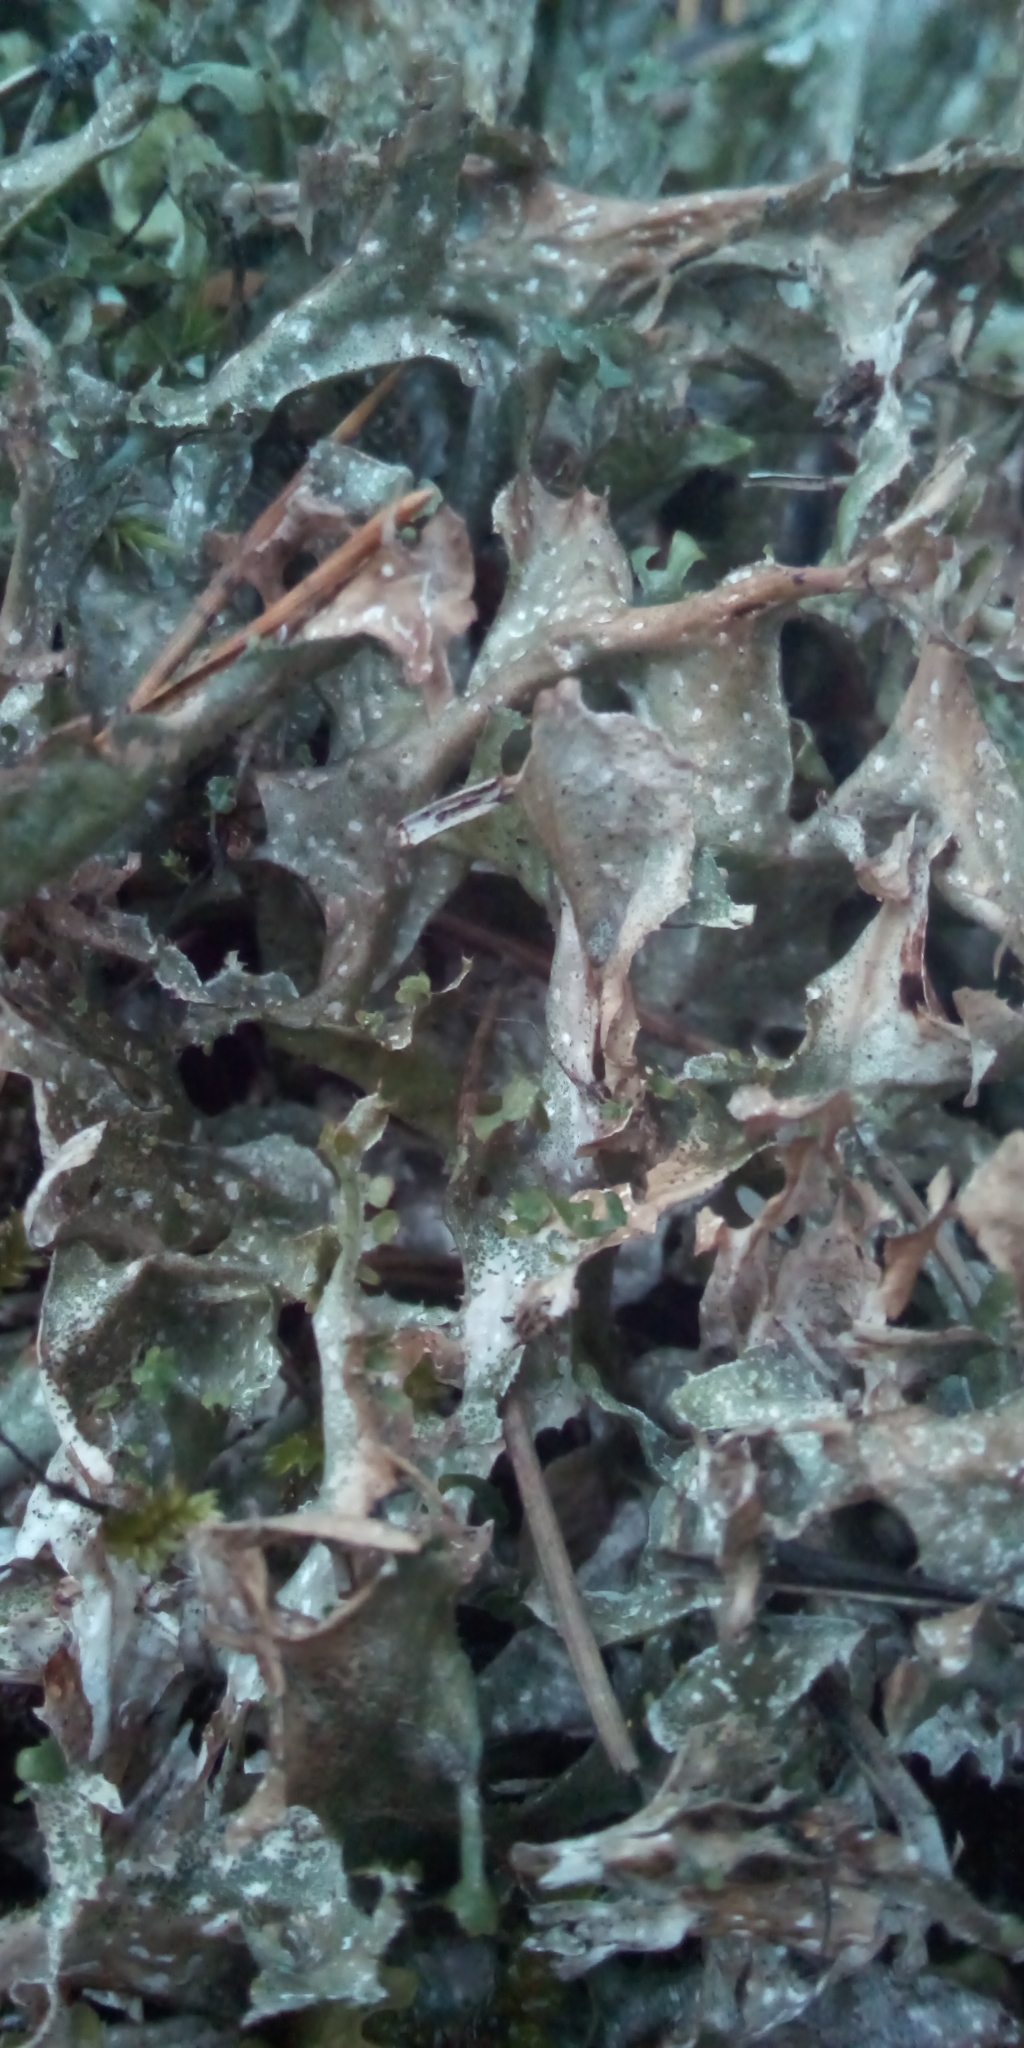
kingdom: Fungi
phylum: Ascomycota
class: Lecanoromycetes
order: Lecanorales
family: Parmeliaceae
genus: Cetraria
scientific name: Cetraria islandica
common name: Iceland lichen
